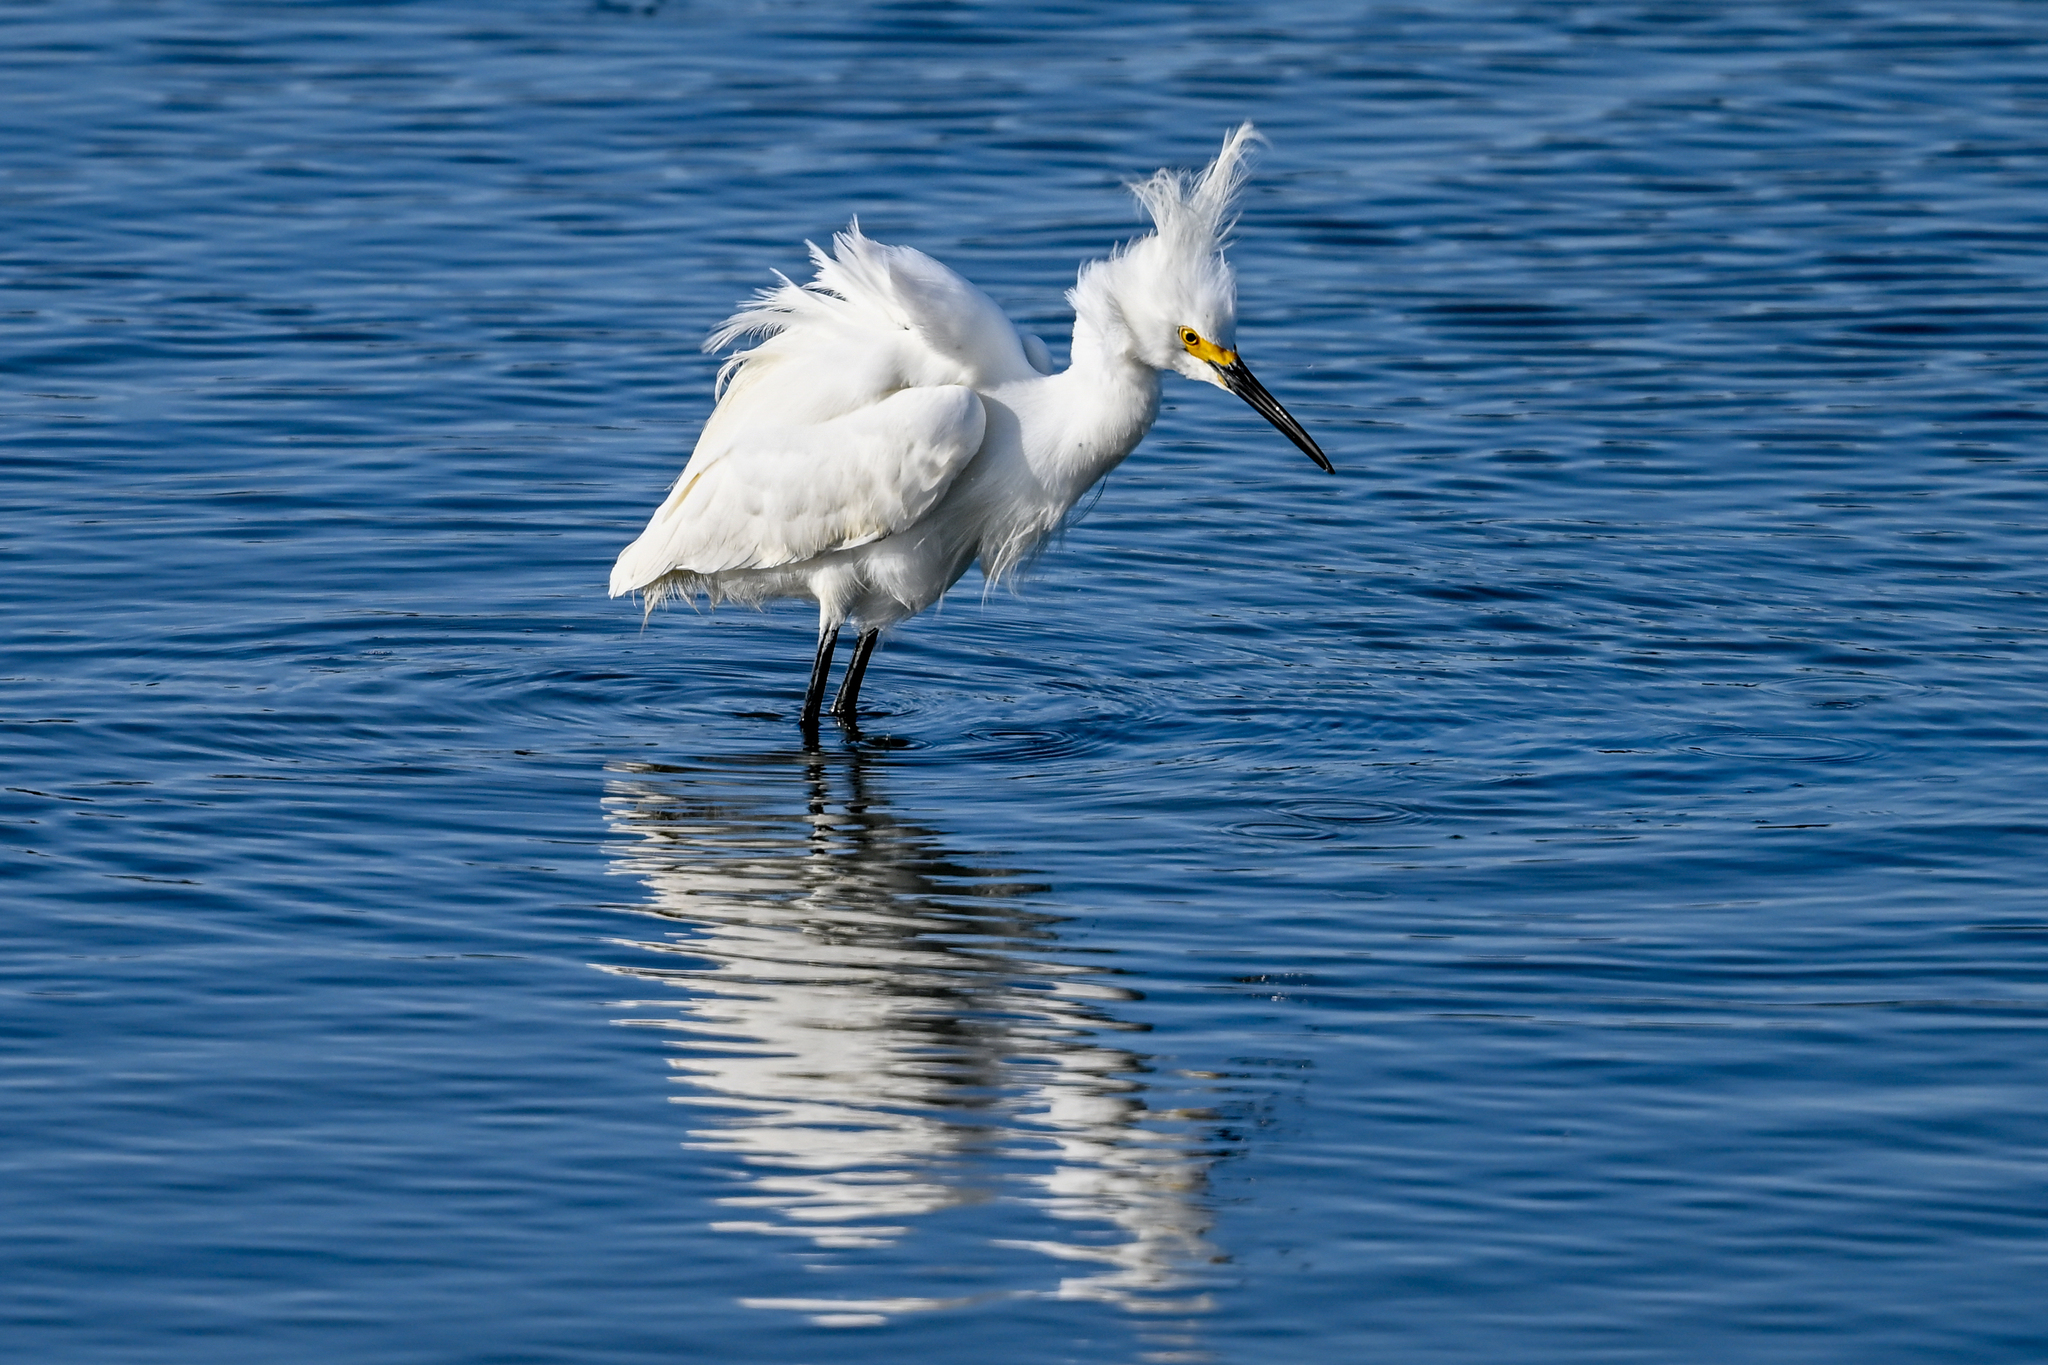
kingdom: Animalia
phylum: Chordata
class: Aves
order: Pelecaniformes
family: Ardeidae
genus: Egretta
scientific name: Egretta thula
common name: Snowy egret
